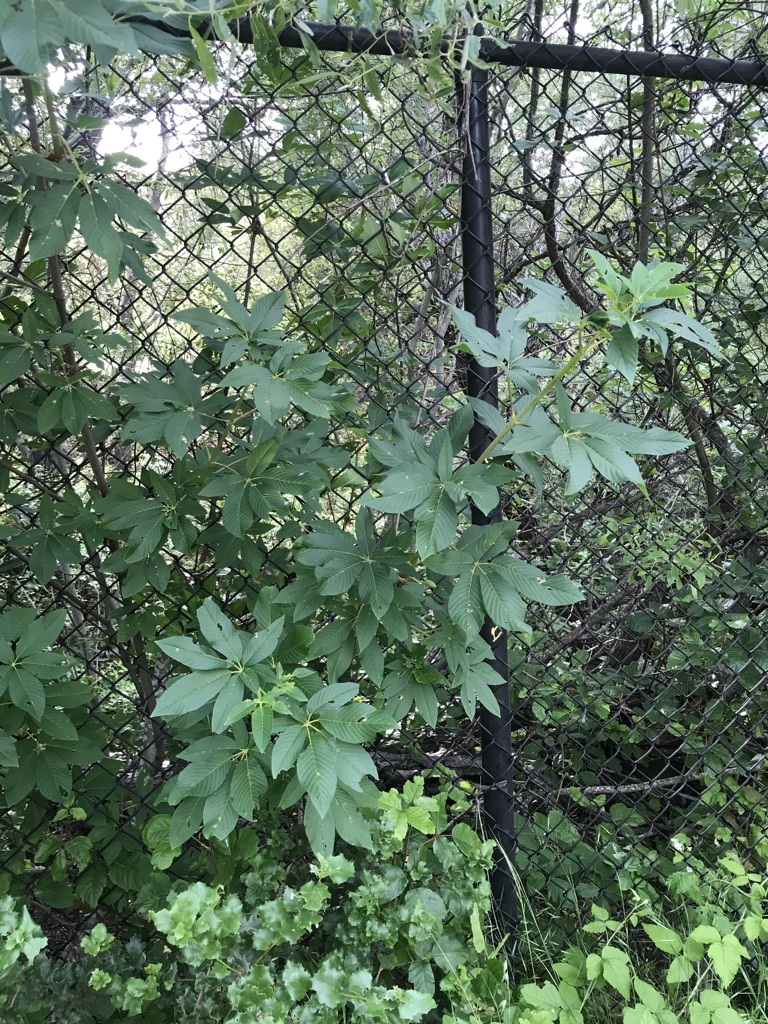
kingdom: Plantae
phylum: Tracheophyta
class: Magnoliopsida
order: Sapindales
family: Sapindaceae
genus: Aesculus
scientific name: Aesculus californica
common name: California buckeye
